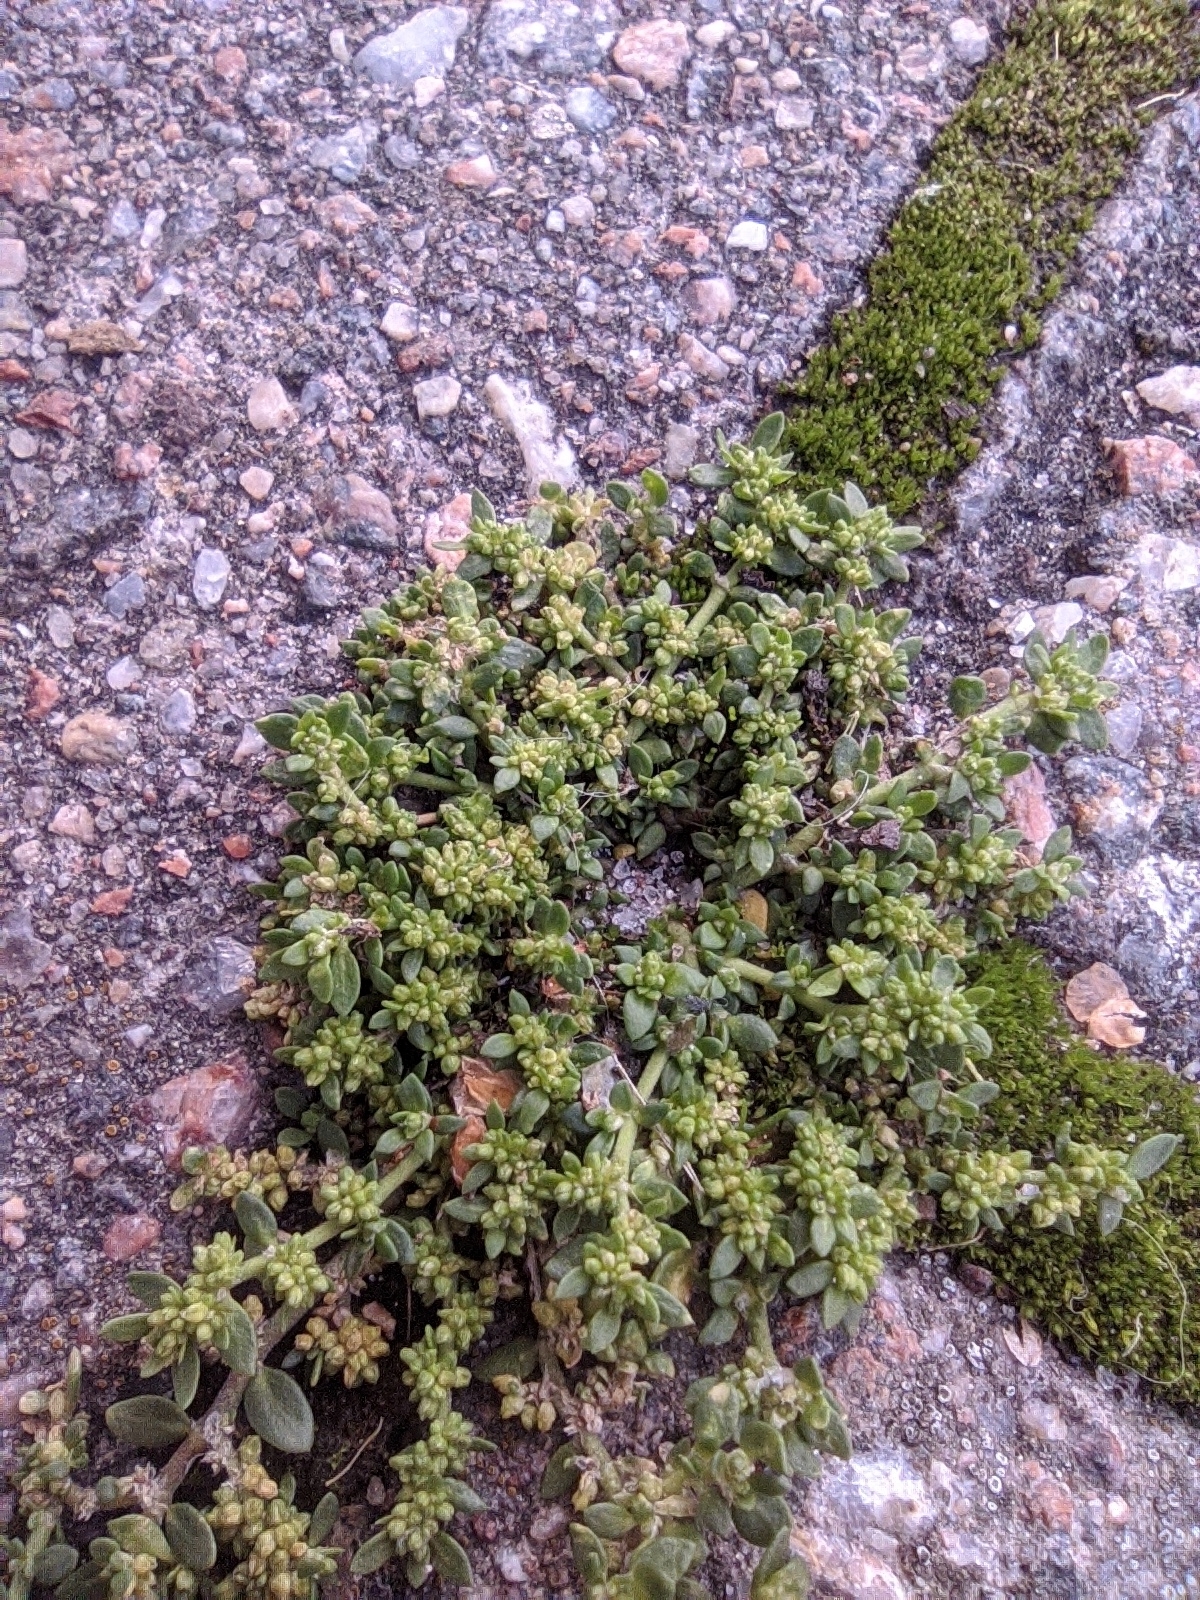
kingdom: Plantae
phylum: Tracheophyta
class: Magnoliopsida
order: Caryophyllales
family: Caryophyllaceae
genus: Herniaria
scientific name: Herniaria glabra
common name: Smooth rupturewort
